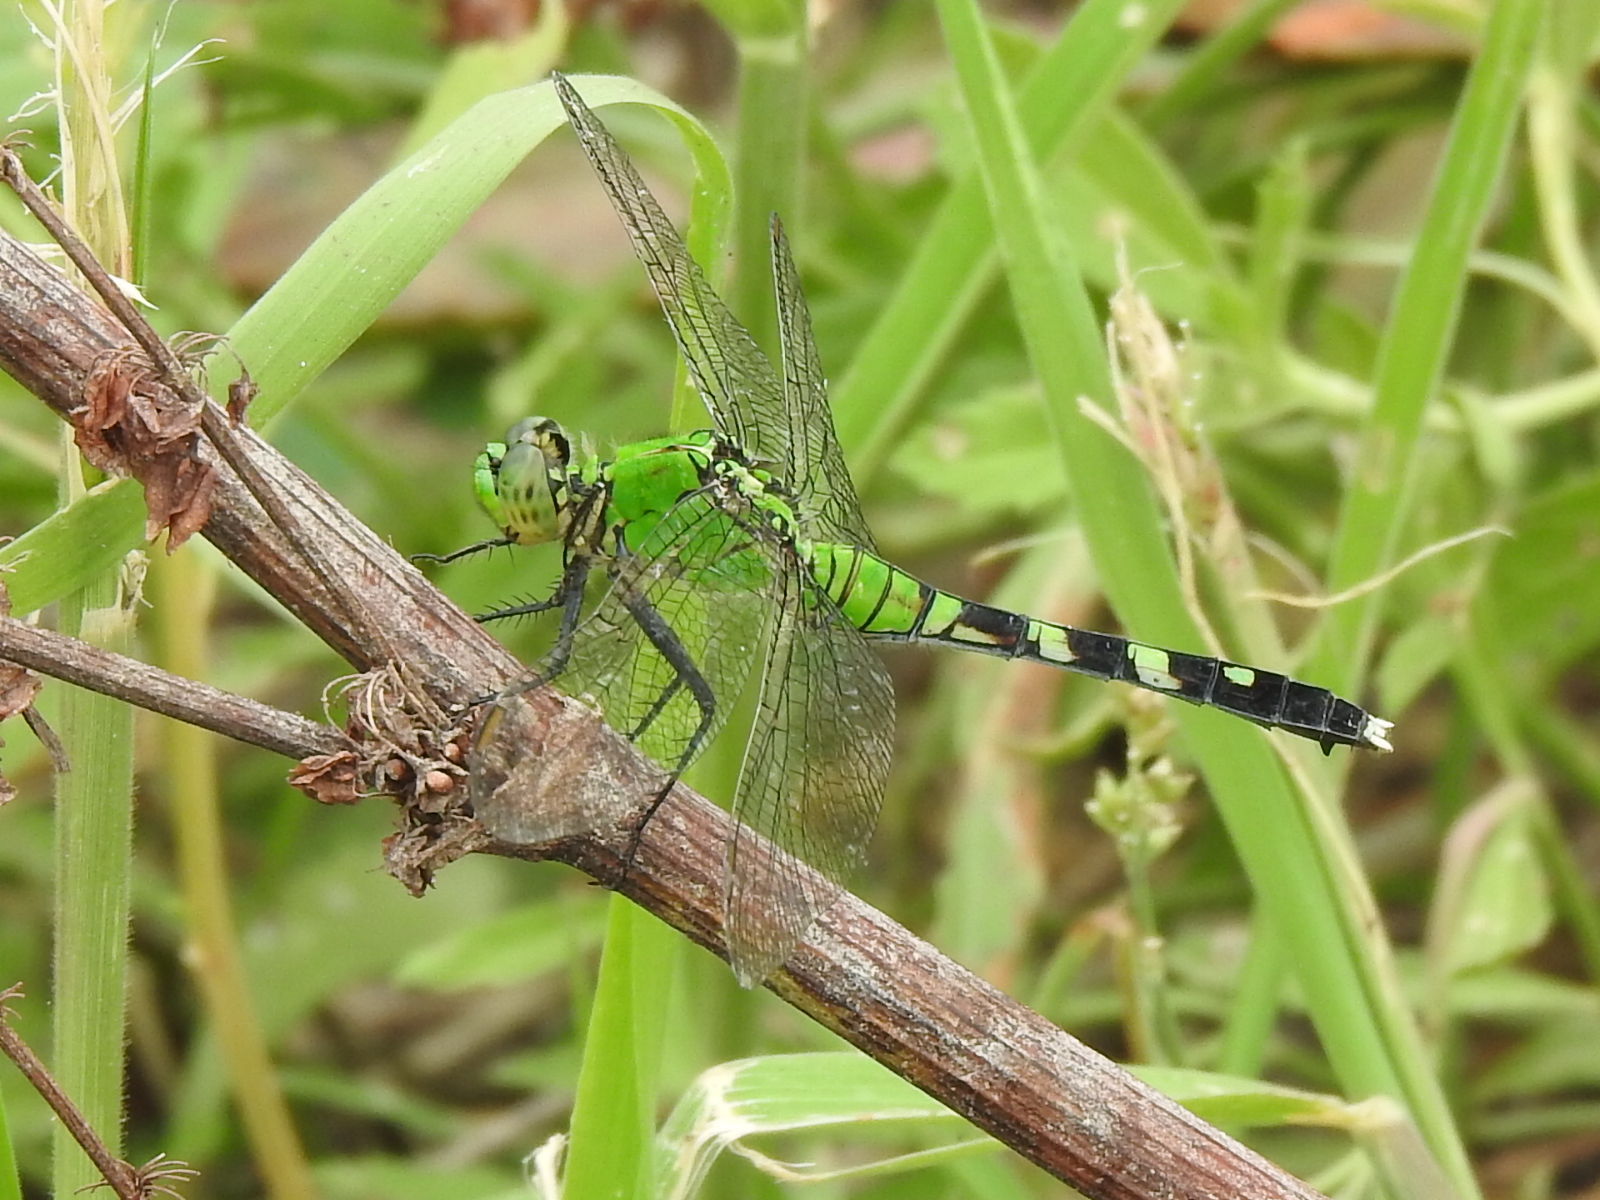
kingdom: Animalia
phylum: Arthropoda
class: Insecta
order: Odonata
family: Libellulidae
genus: Erythemis
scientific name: Erythemis simplicicollis
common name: Eastern pondhawk
